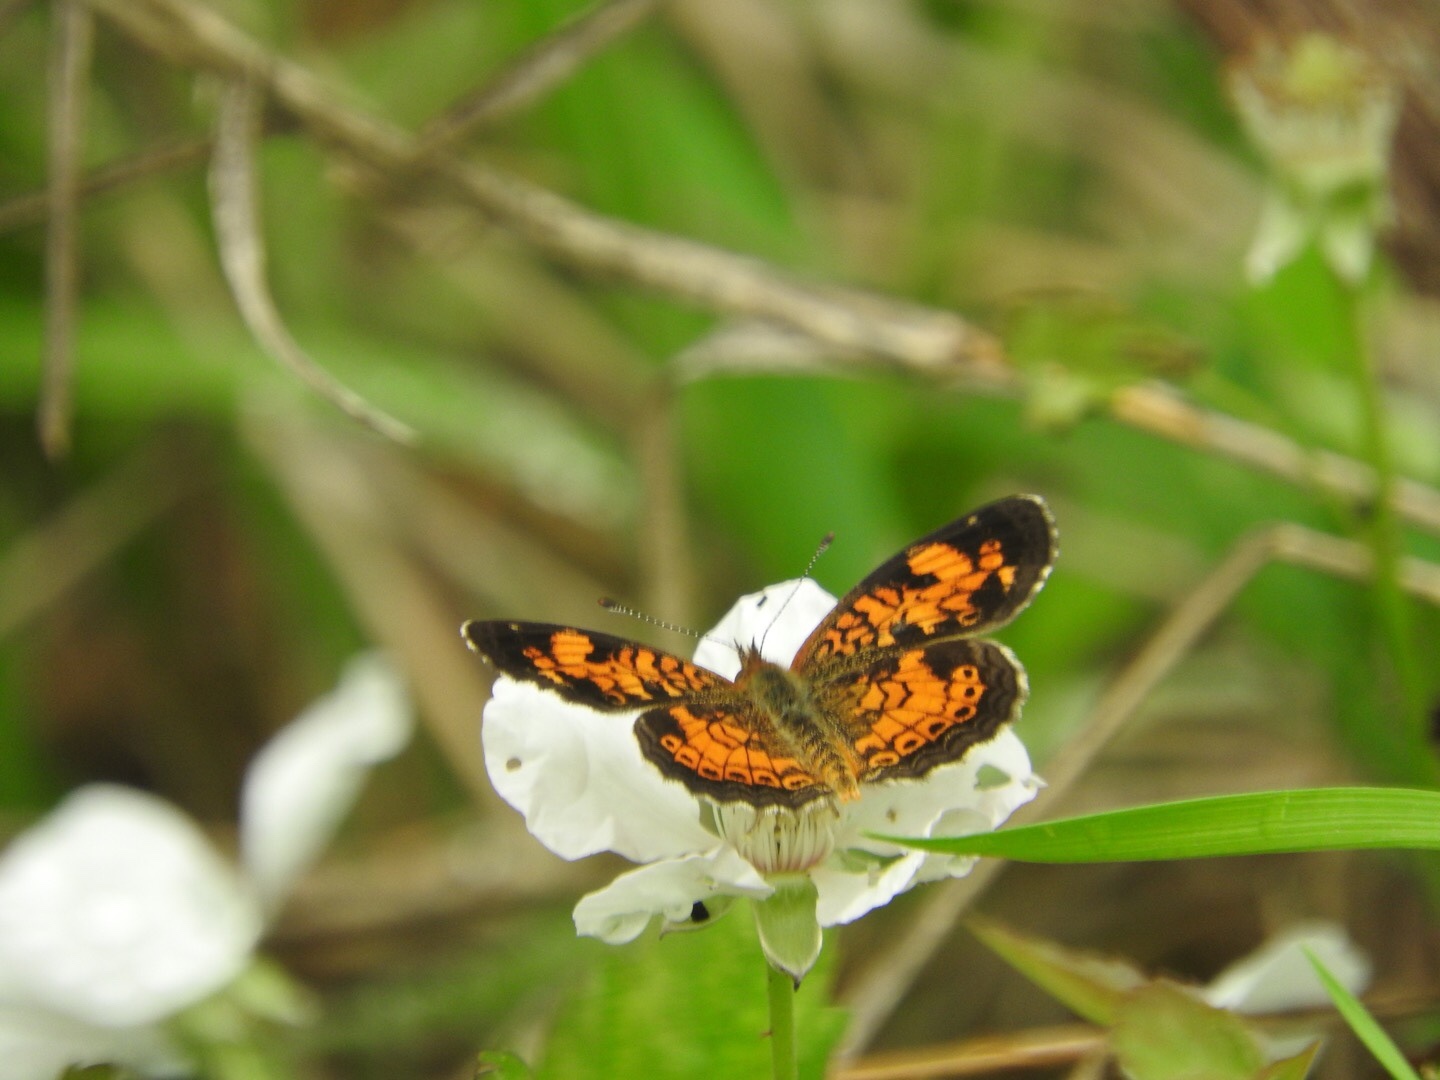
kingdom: Animalia
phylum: Arthropoda
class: Insecta
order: Lepidoptera
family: Nymphalidae
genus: Phyciodes
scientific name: Phyciodes tharos
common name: Pearl crescent
